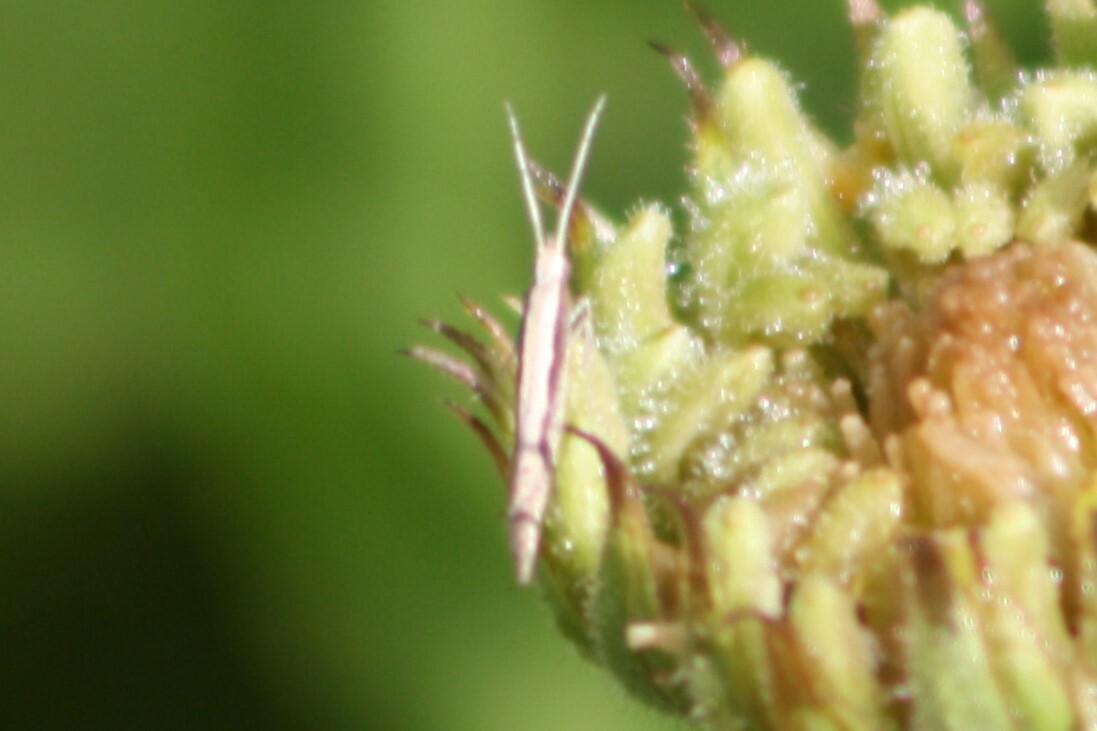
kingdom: Animalia
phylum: Arthropoda
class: Insecta
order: Lepidoptera
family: Plutellidae
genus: Plutella
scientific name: Plutella xylostella
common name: Diamond-back moth
